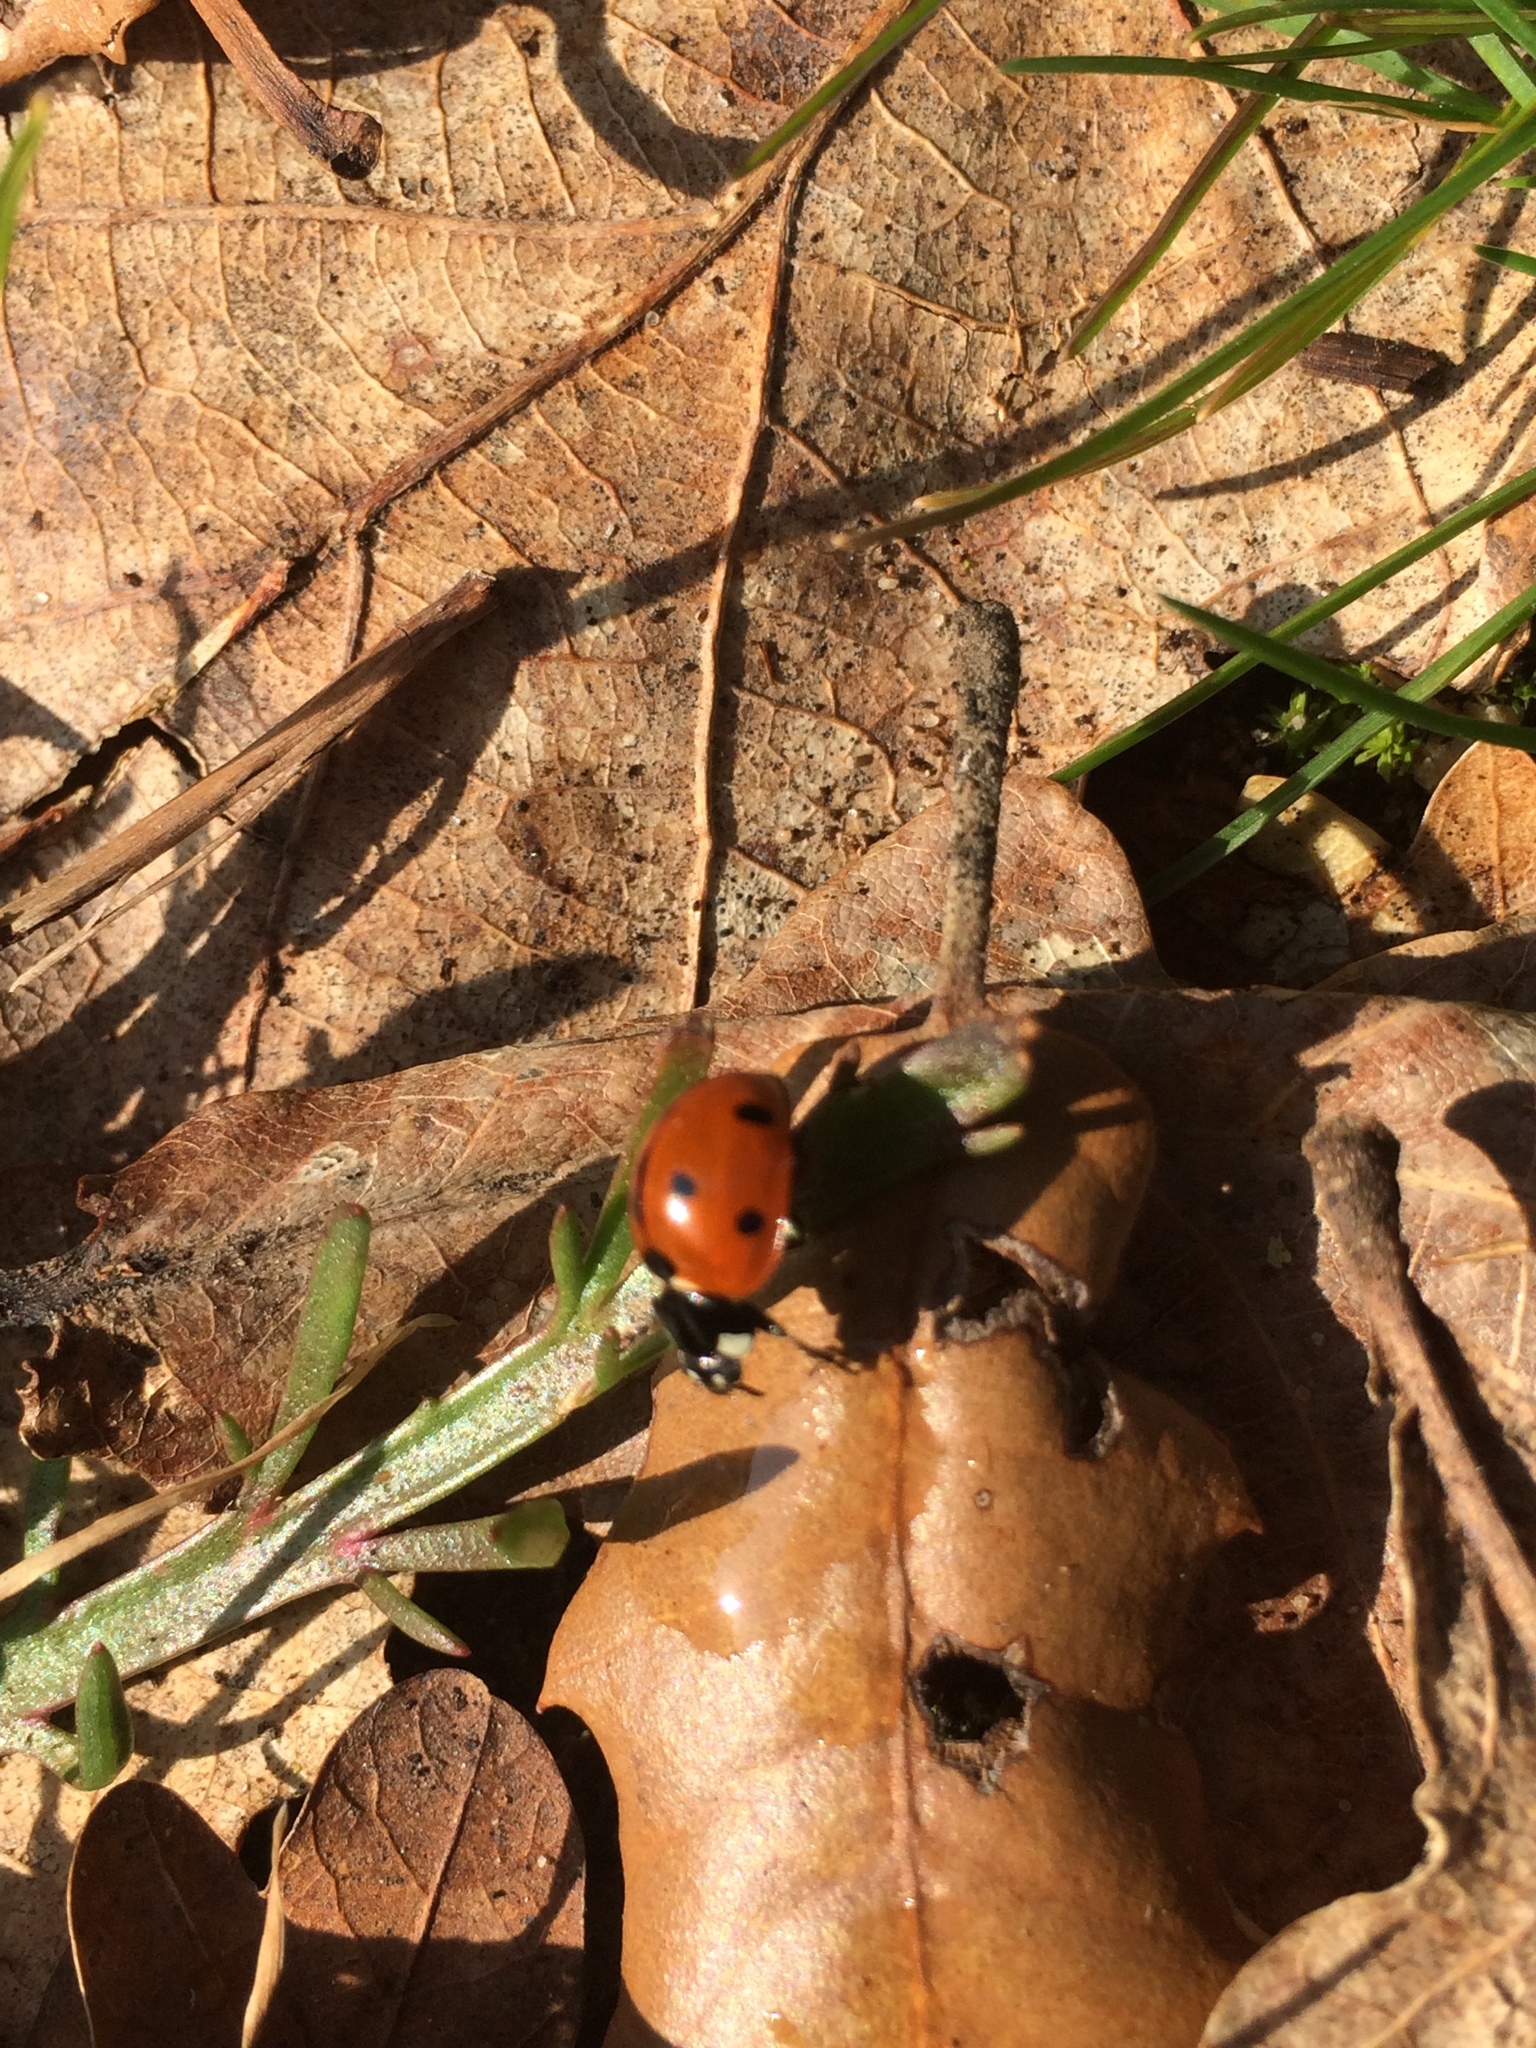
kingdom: Animalia
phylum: Arthropoda
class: Insecta
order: Coleoptera
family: Coccinellidae
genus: Coccinella
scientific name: Coccinella septempunctata
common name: Sevenspotted lady beetle
